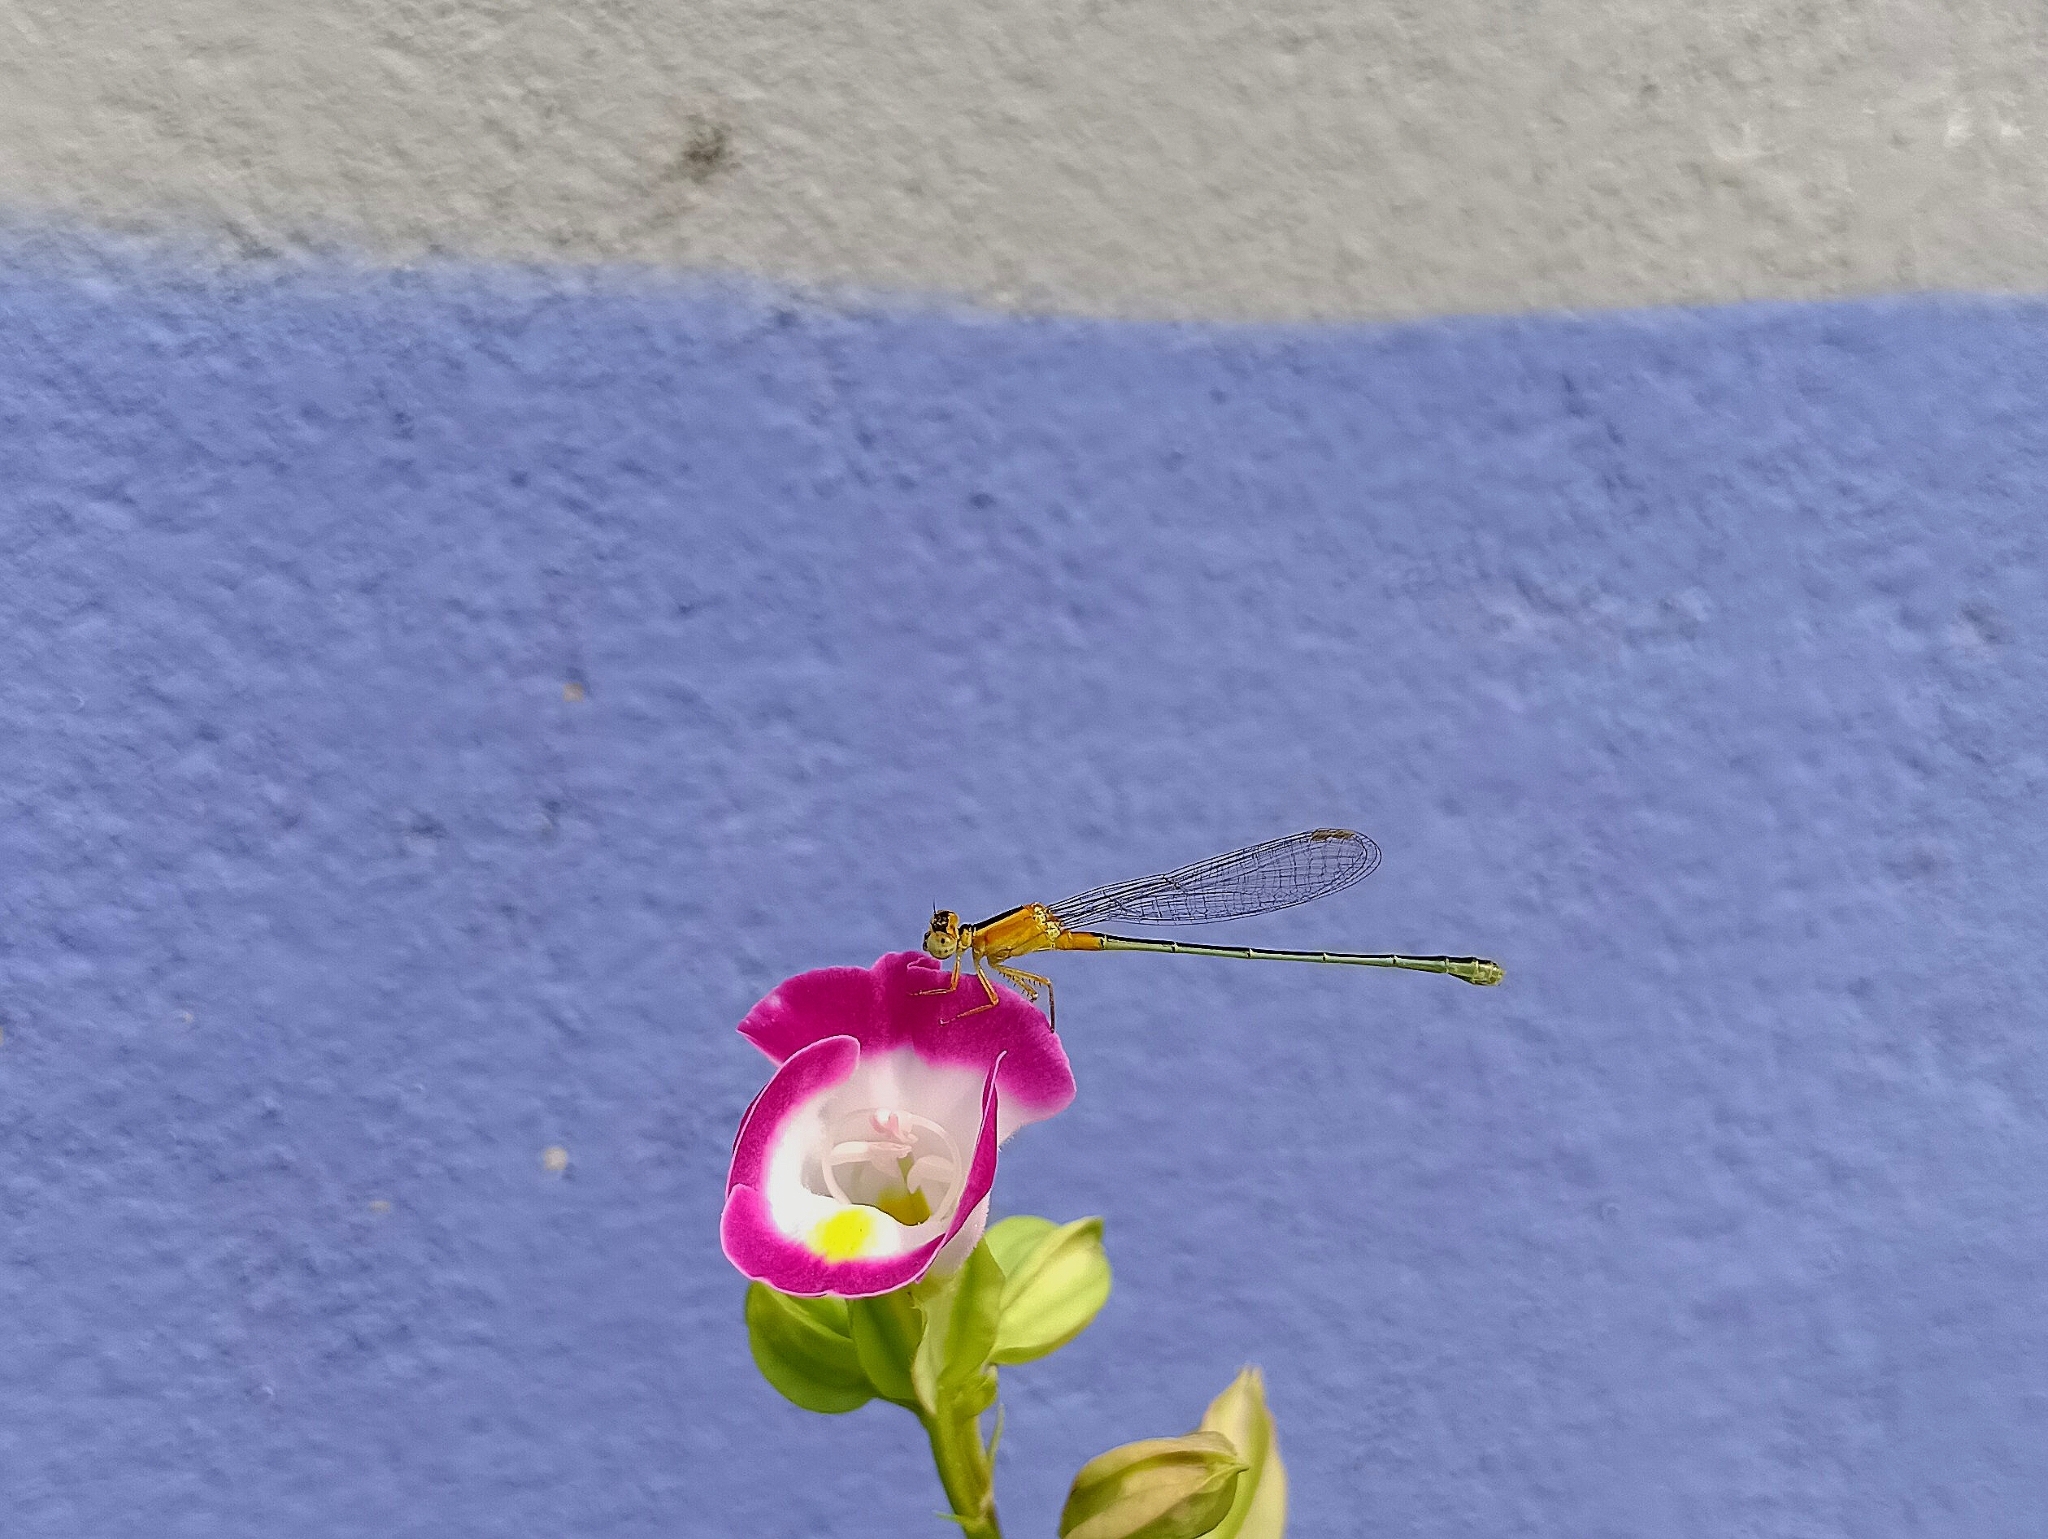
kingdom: Animalia
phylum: Arthropoda
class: Insecta
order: Odonata
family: Coenagrionidae
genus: Ischnura
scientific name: Ischnura senegalensis
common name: Tropical bluetail
